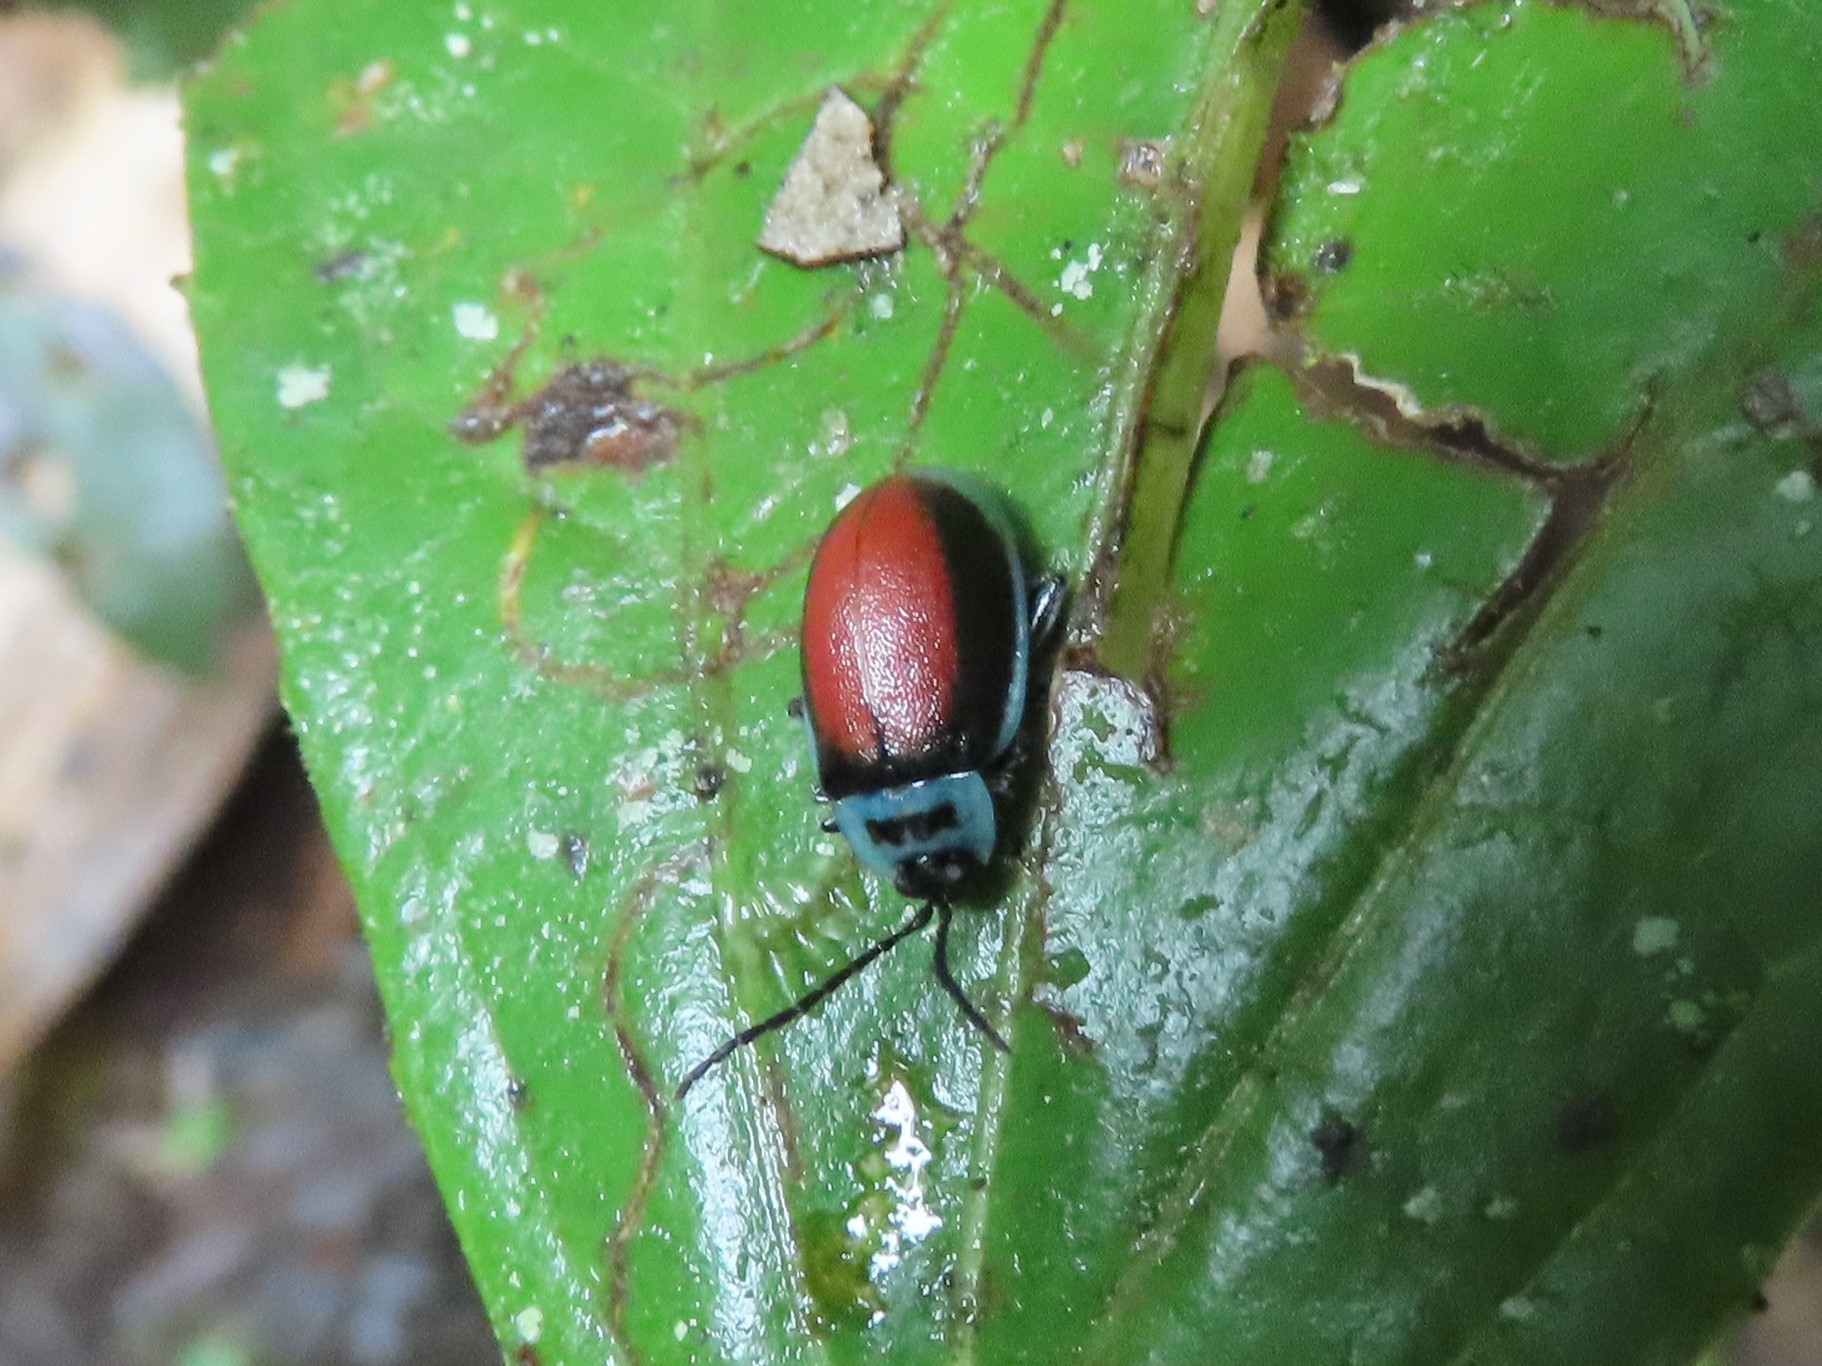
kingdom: Animalia
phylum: Arthropoda
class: Insecta
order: Coleoptera
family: Chrysomelidae
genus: Aspicela
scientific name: Aspicela
